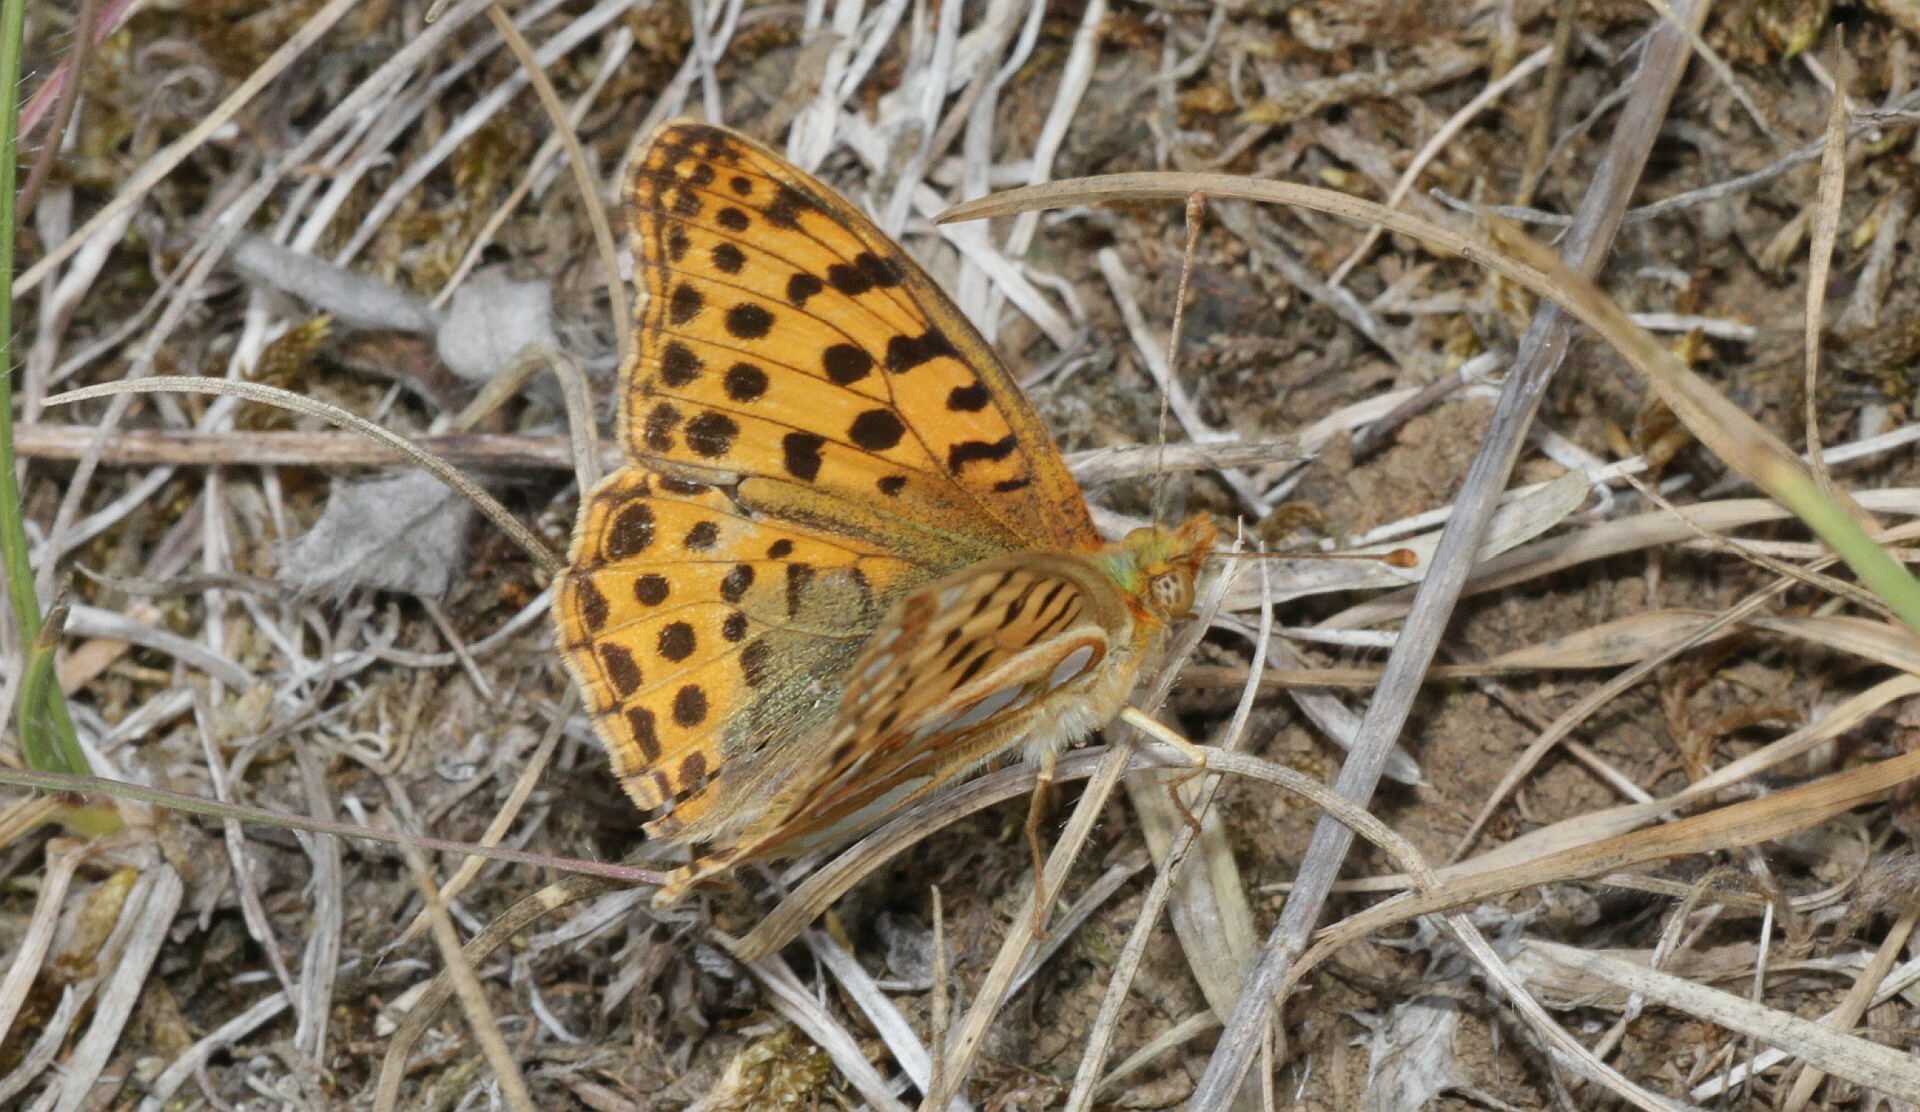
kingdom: Animalia
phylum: Arthropoda
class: Insecta
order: Lepidoptera
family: Nymphalidae
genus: Issoria
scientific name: Issoria lathonia
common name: Queen of spain fritillary
